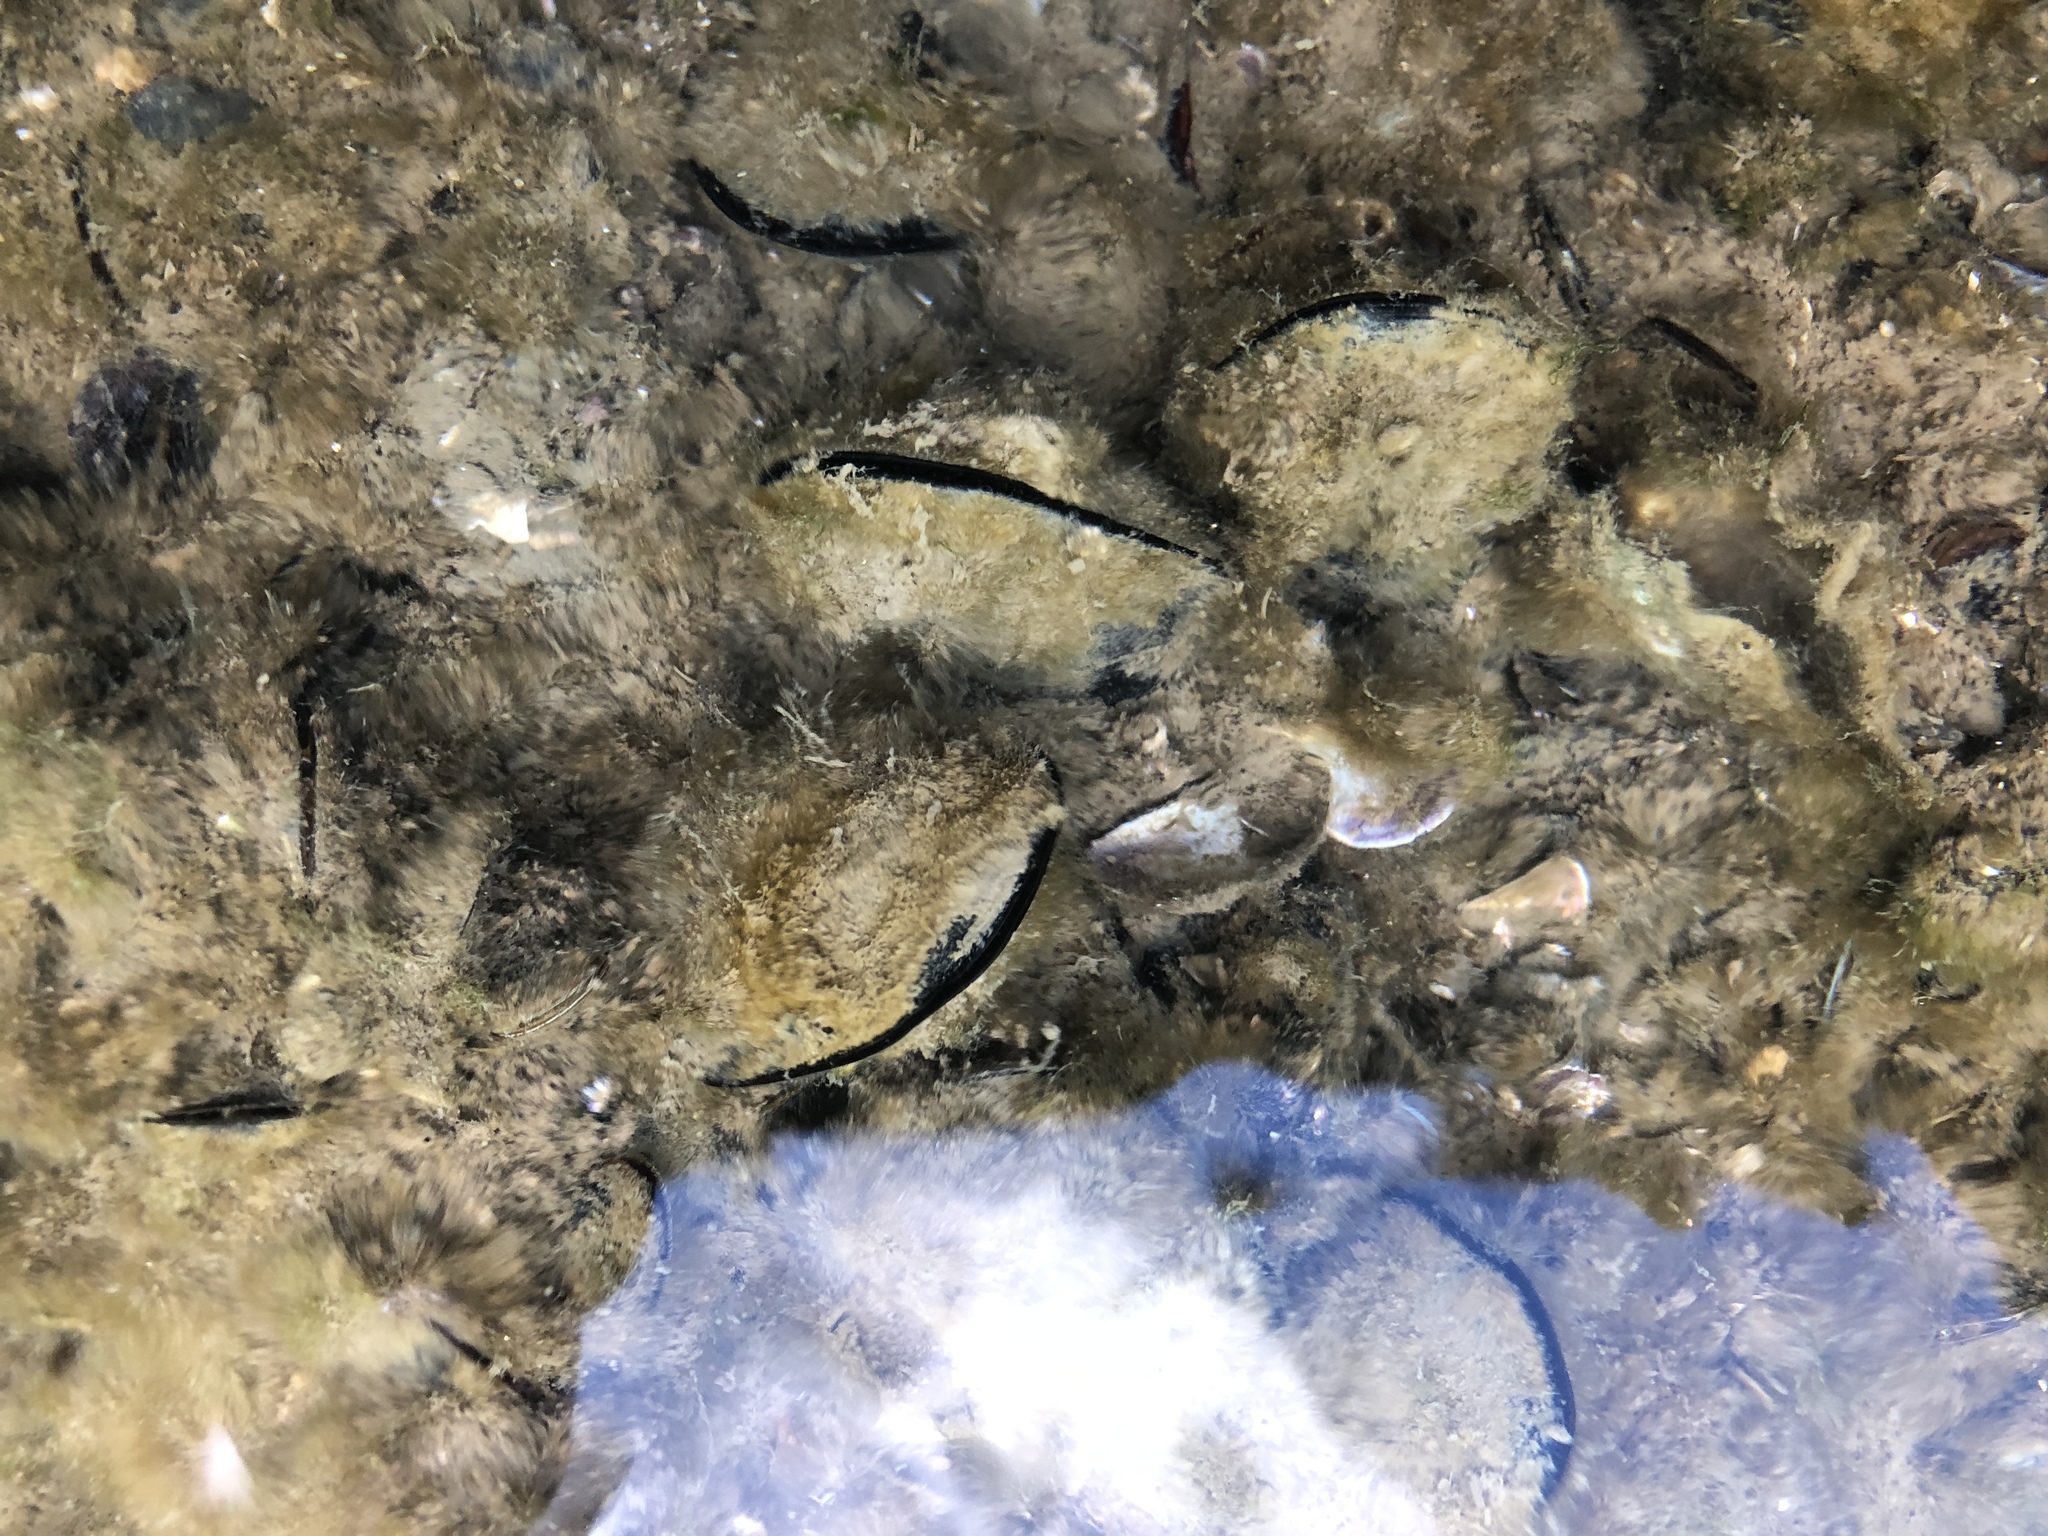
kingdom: Animalia
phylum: Mollusca
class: Bivalvia
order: Mytilida
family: Mytilidae
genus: Mytilus
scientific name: Mytilus planulatus
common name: Australian mussel
